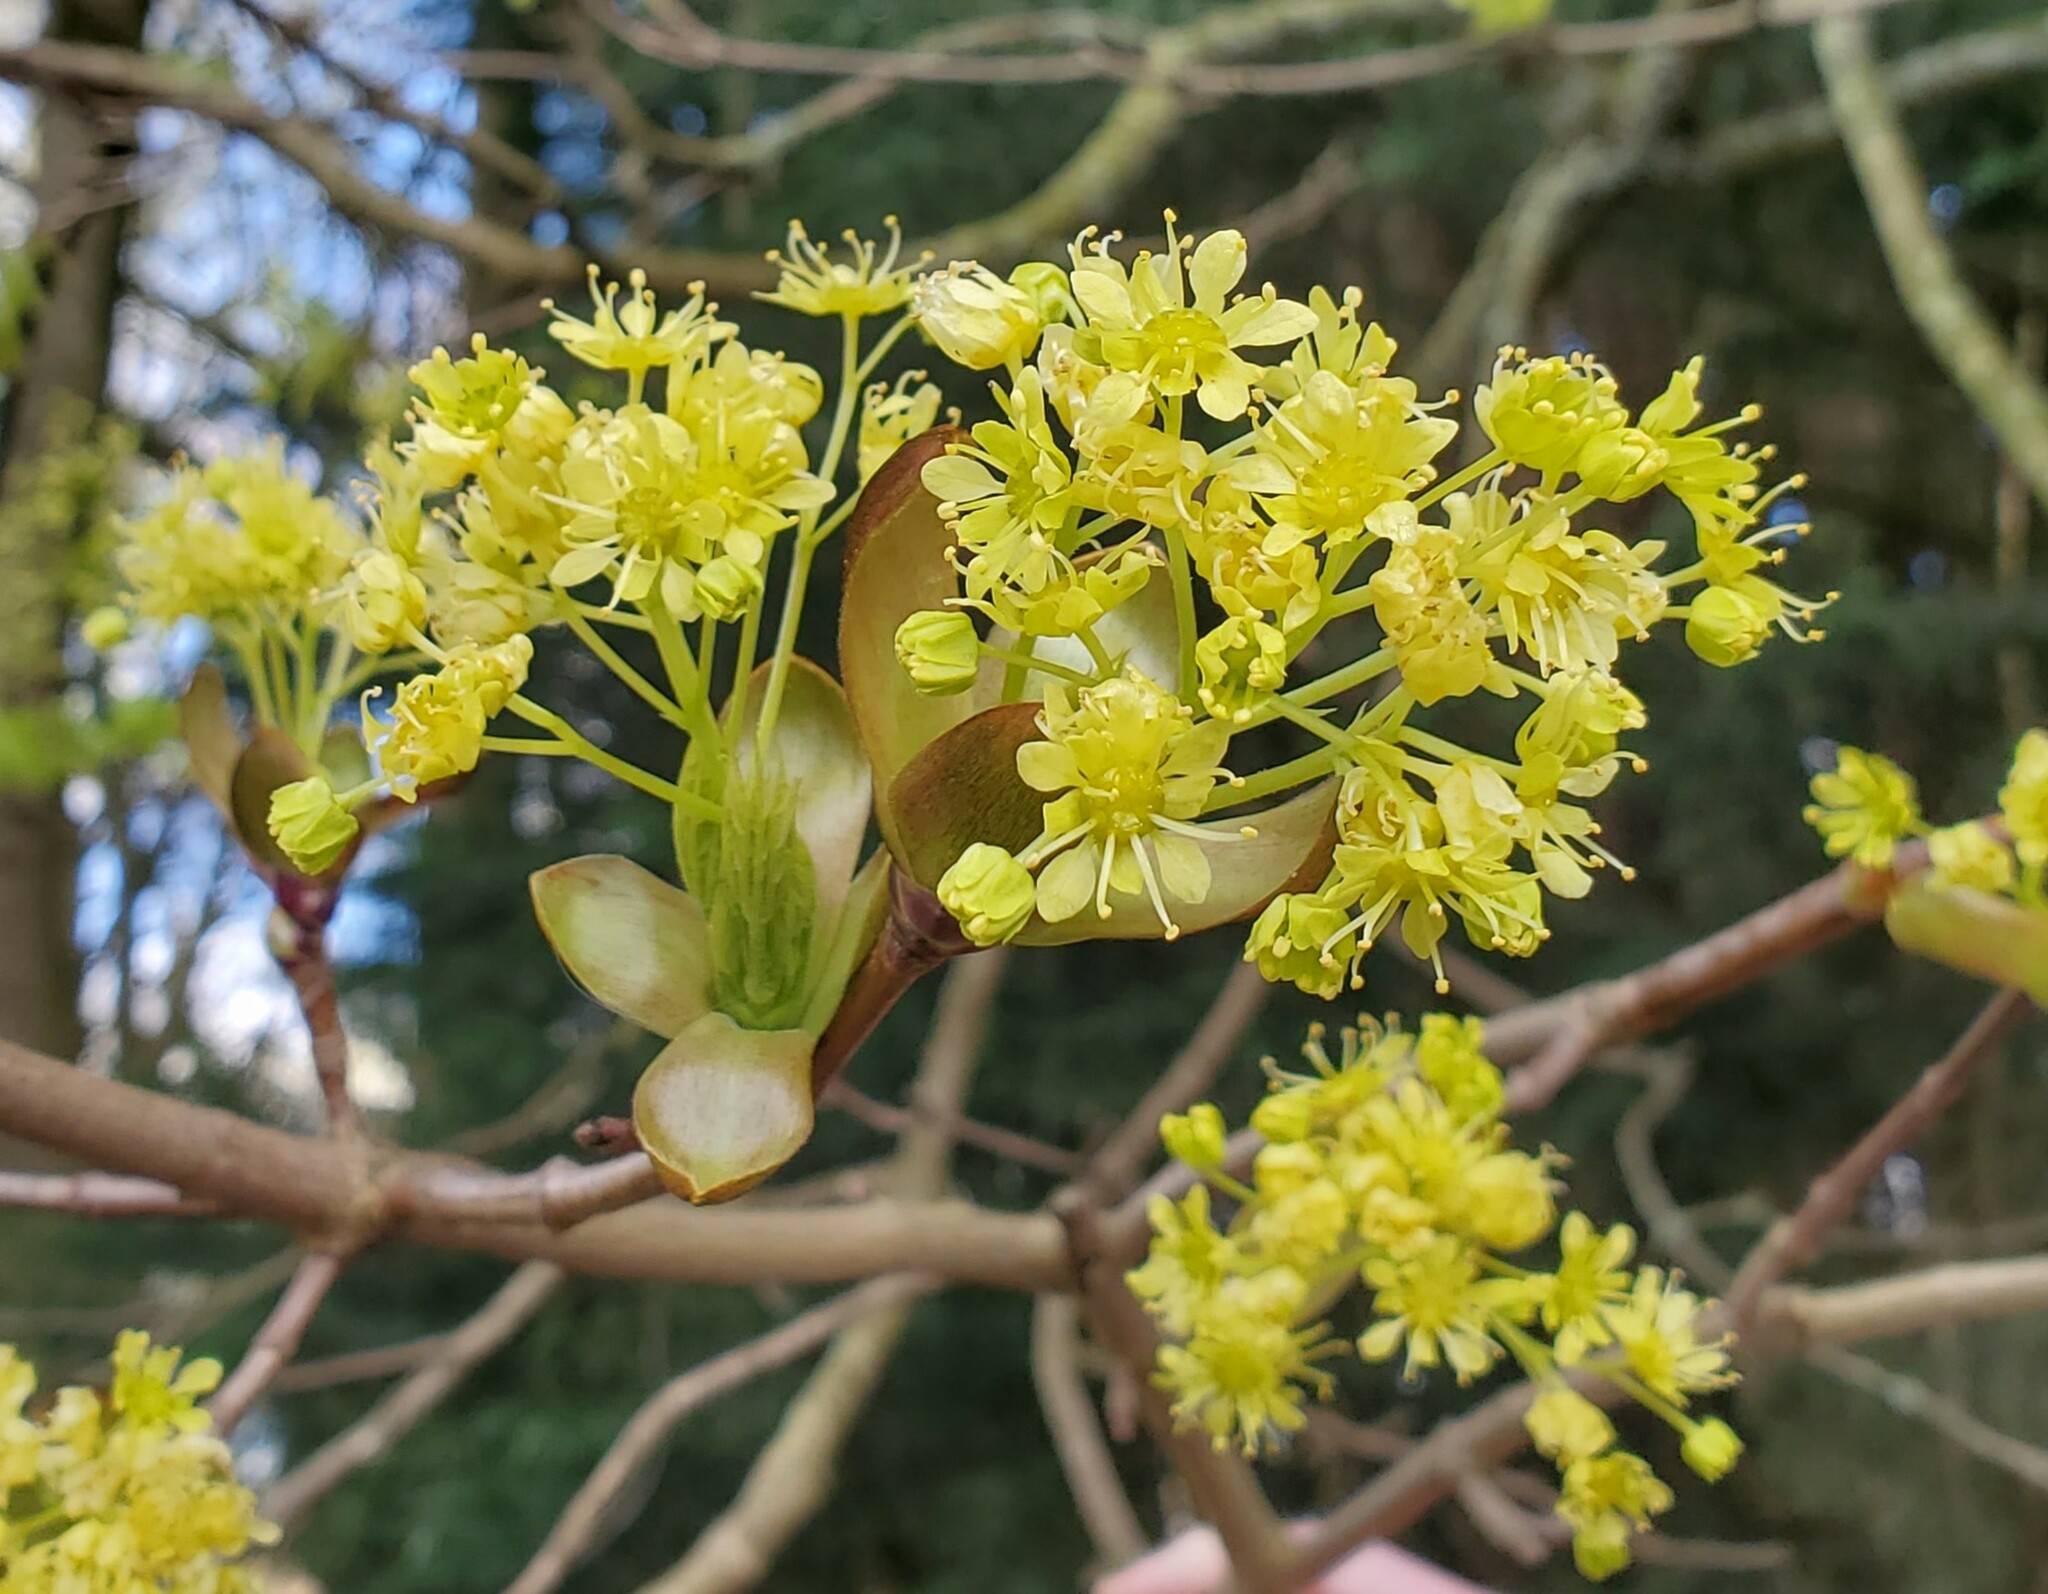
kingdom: Plantae
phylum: Tracheophyta
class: Magnoliopsida
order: Sapindales
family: Sapindaceae
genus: Acer
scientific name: Acer platanoides
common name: Norway maple
